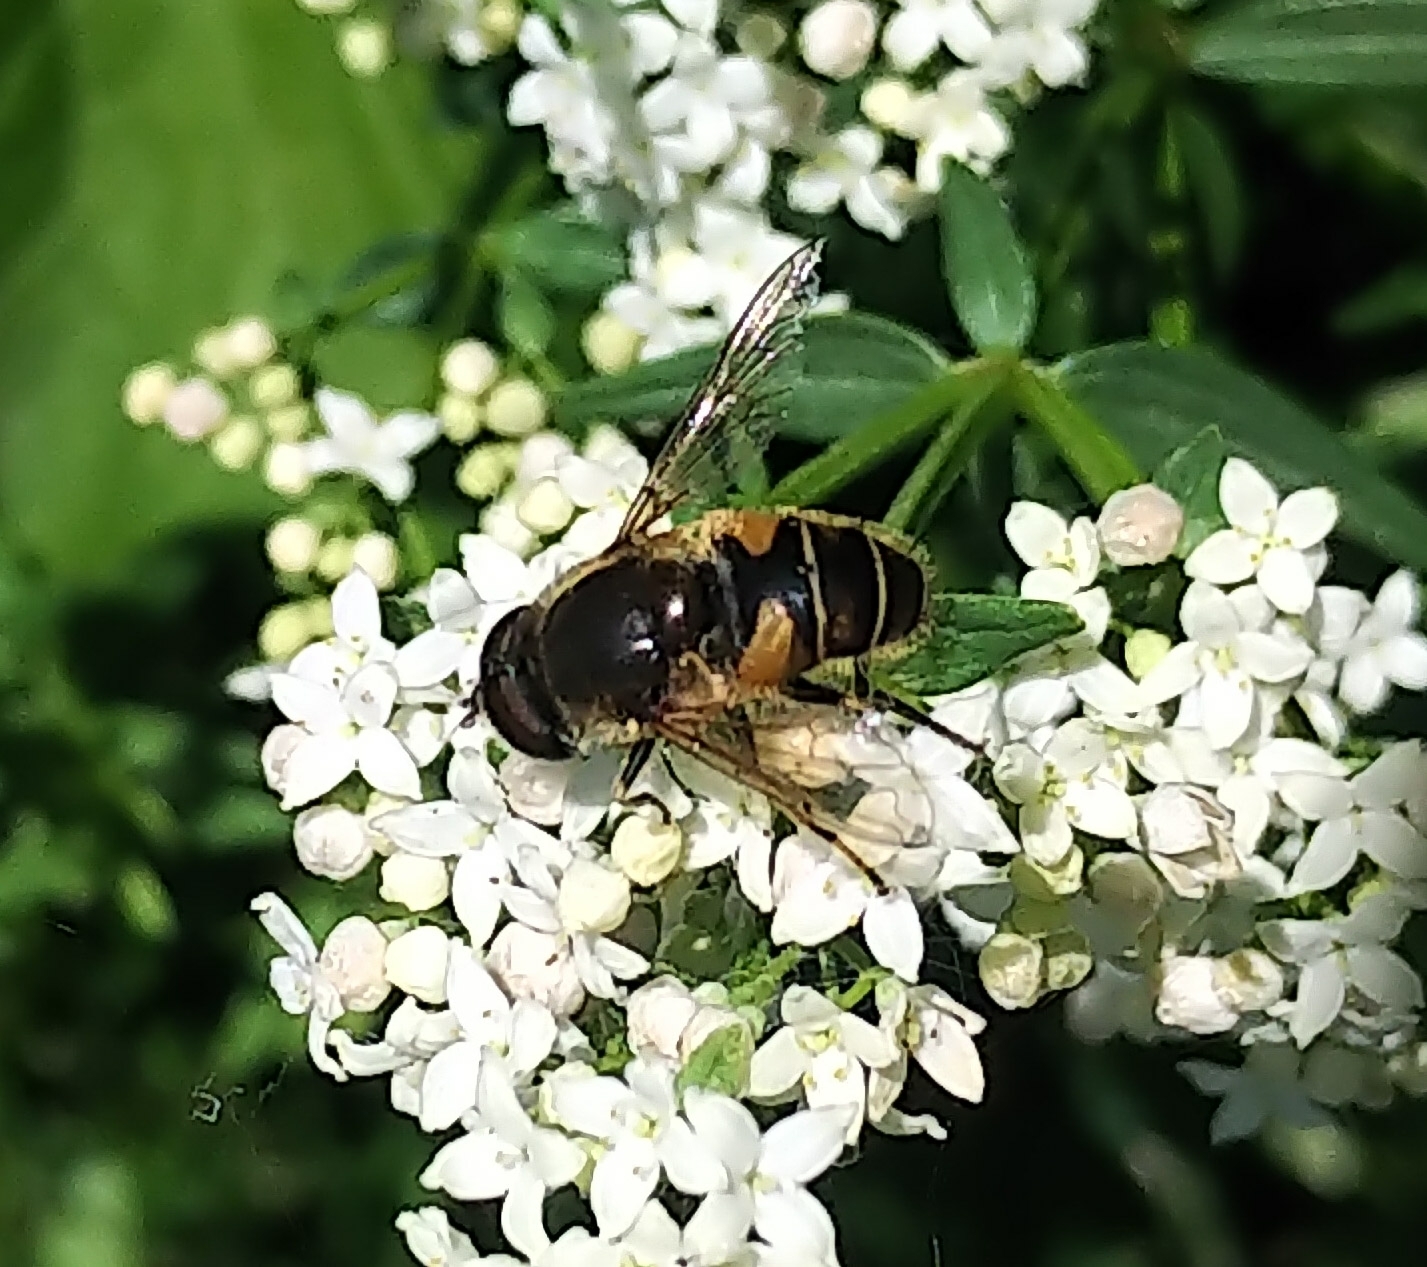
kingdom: Animalia
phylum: Arthropoda
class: Insecta
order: Diptera
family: Syrphidae
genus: Eristalis
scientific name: Eristalis nemorum
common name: Orange-spined drone fly
